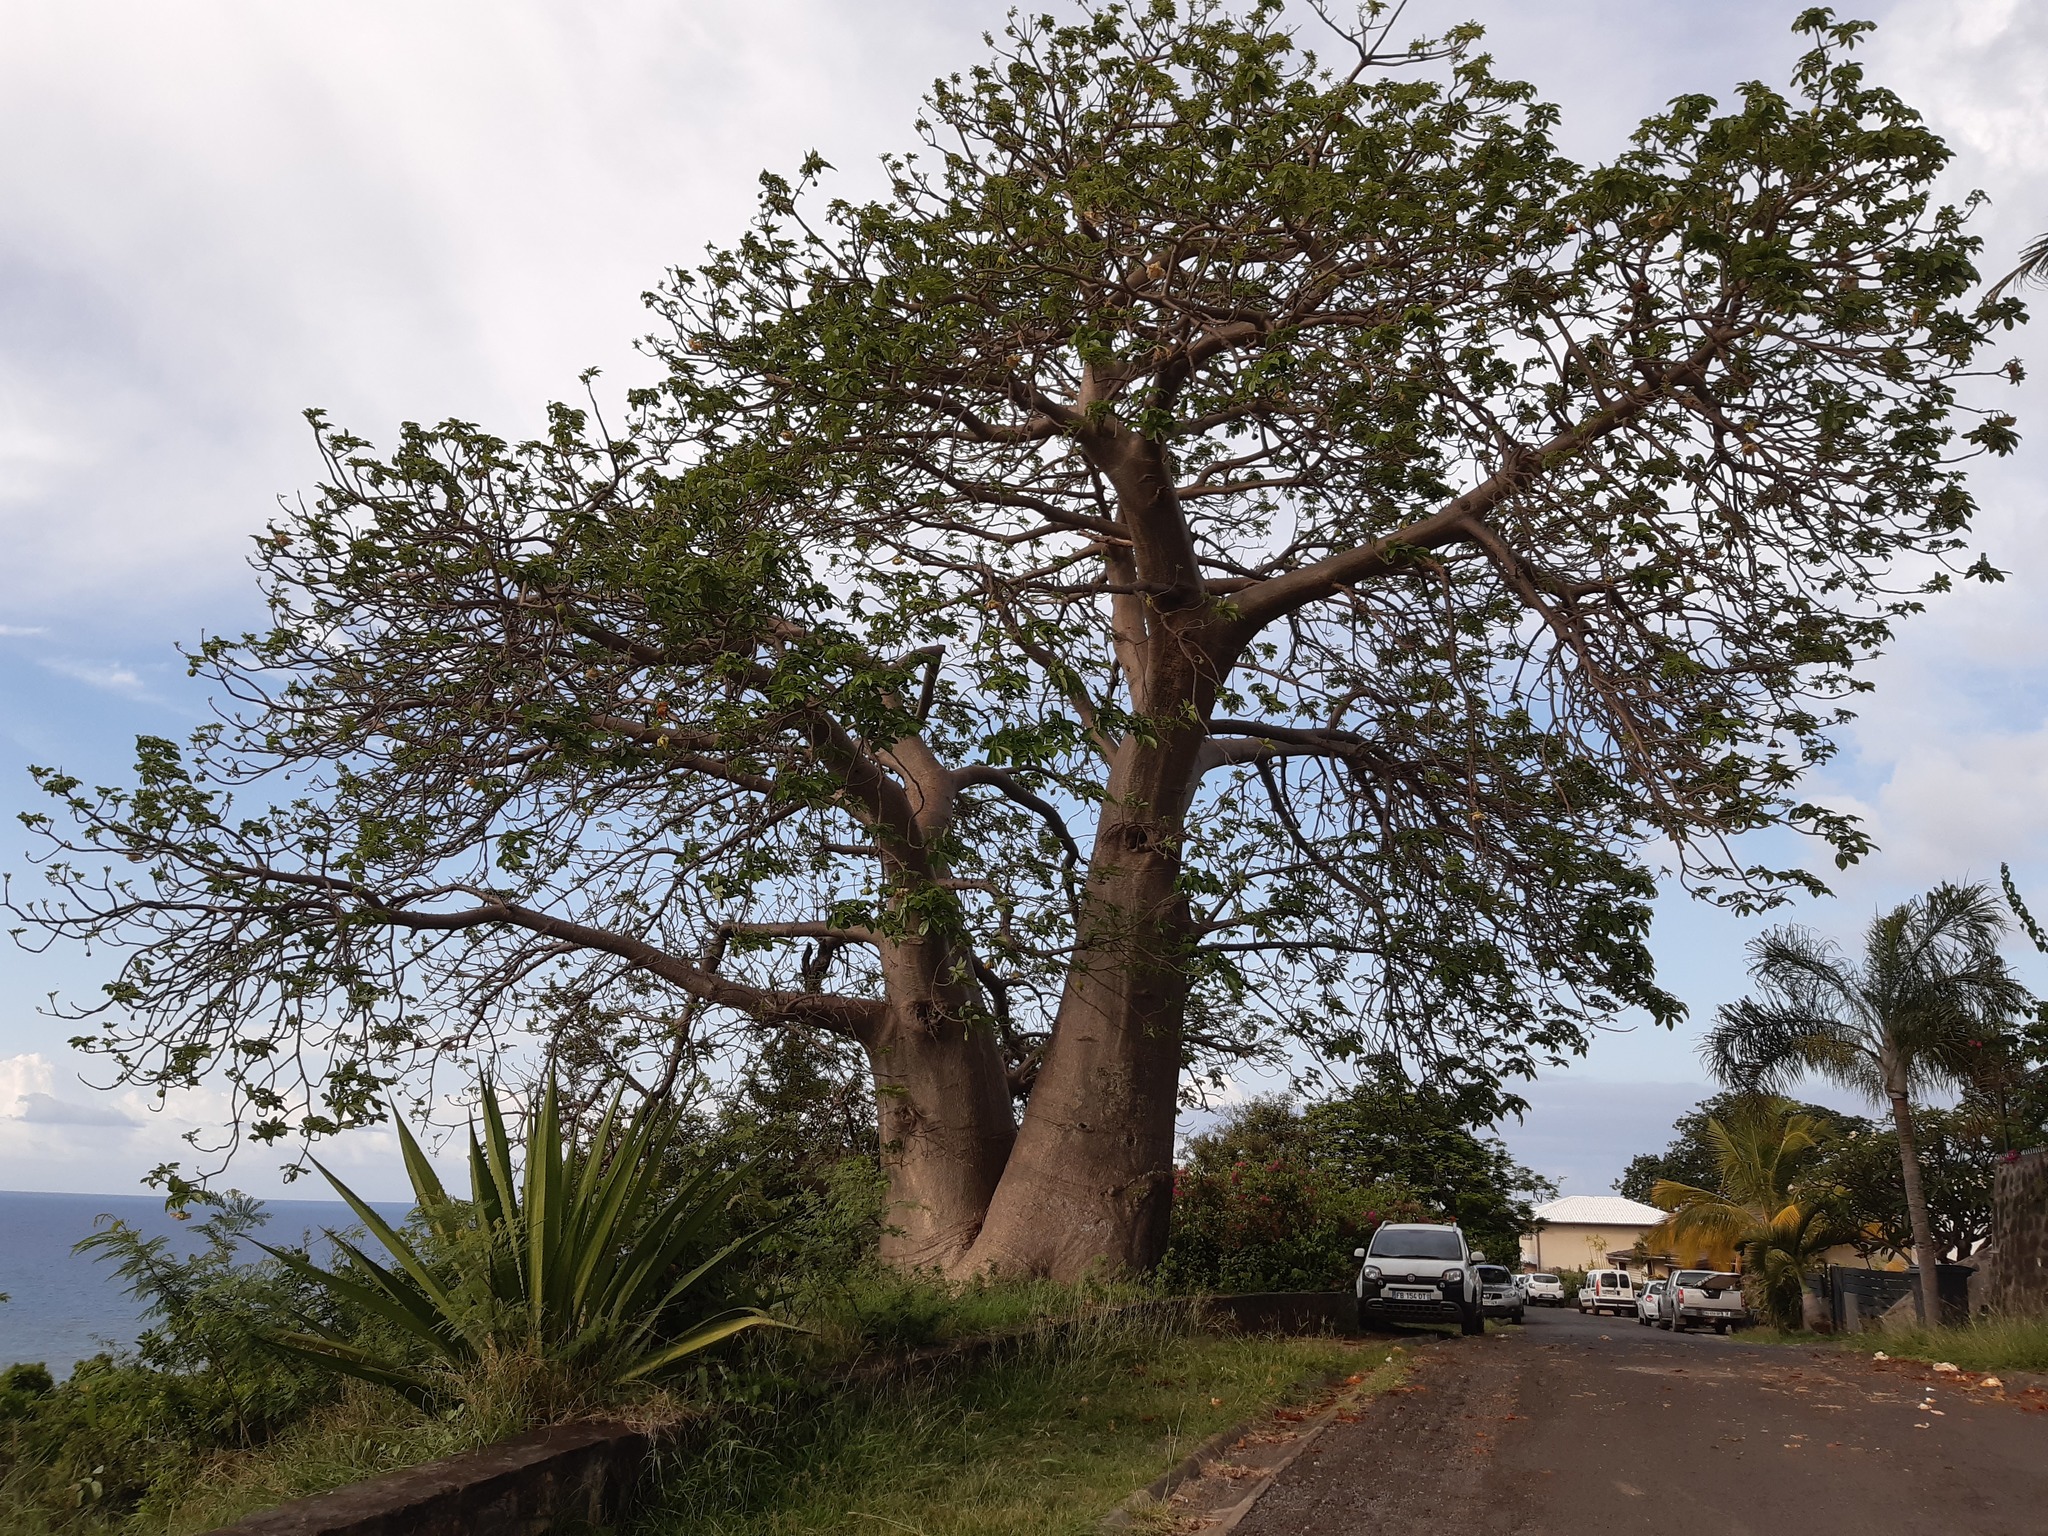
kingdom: Plantae
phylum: Tracheophyta
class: Magnoliopsida
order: Malvales
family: Malvaceae
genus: Adansonia
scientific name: Adansonia digitata
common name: Dead-rat-tree
